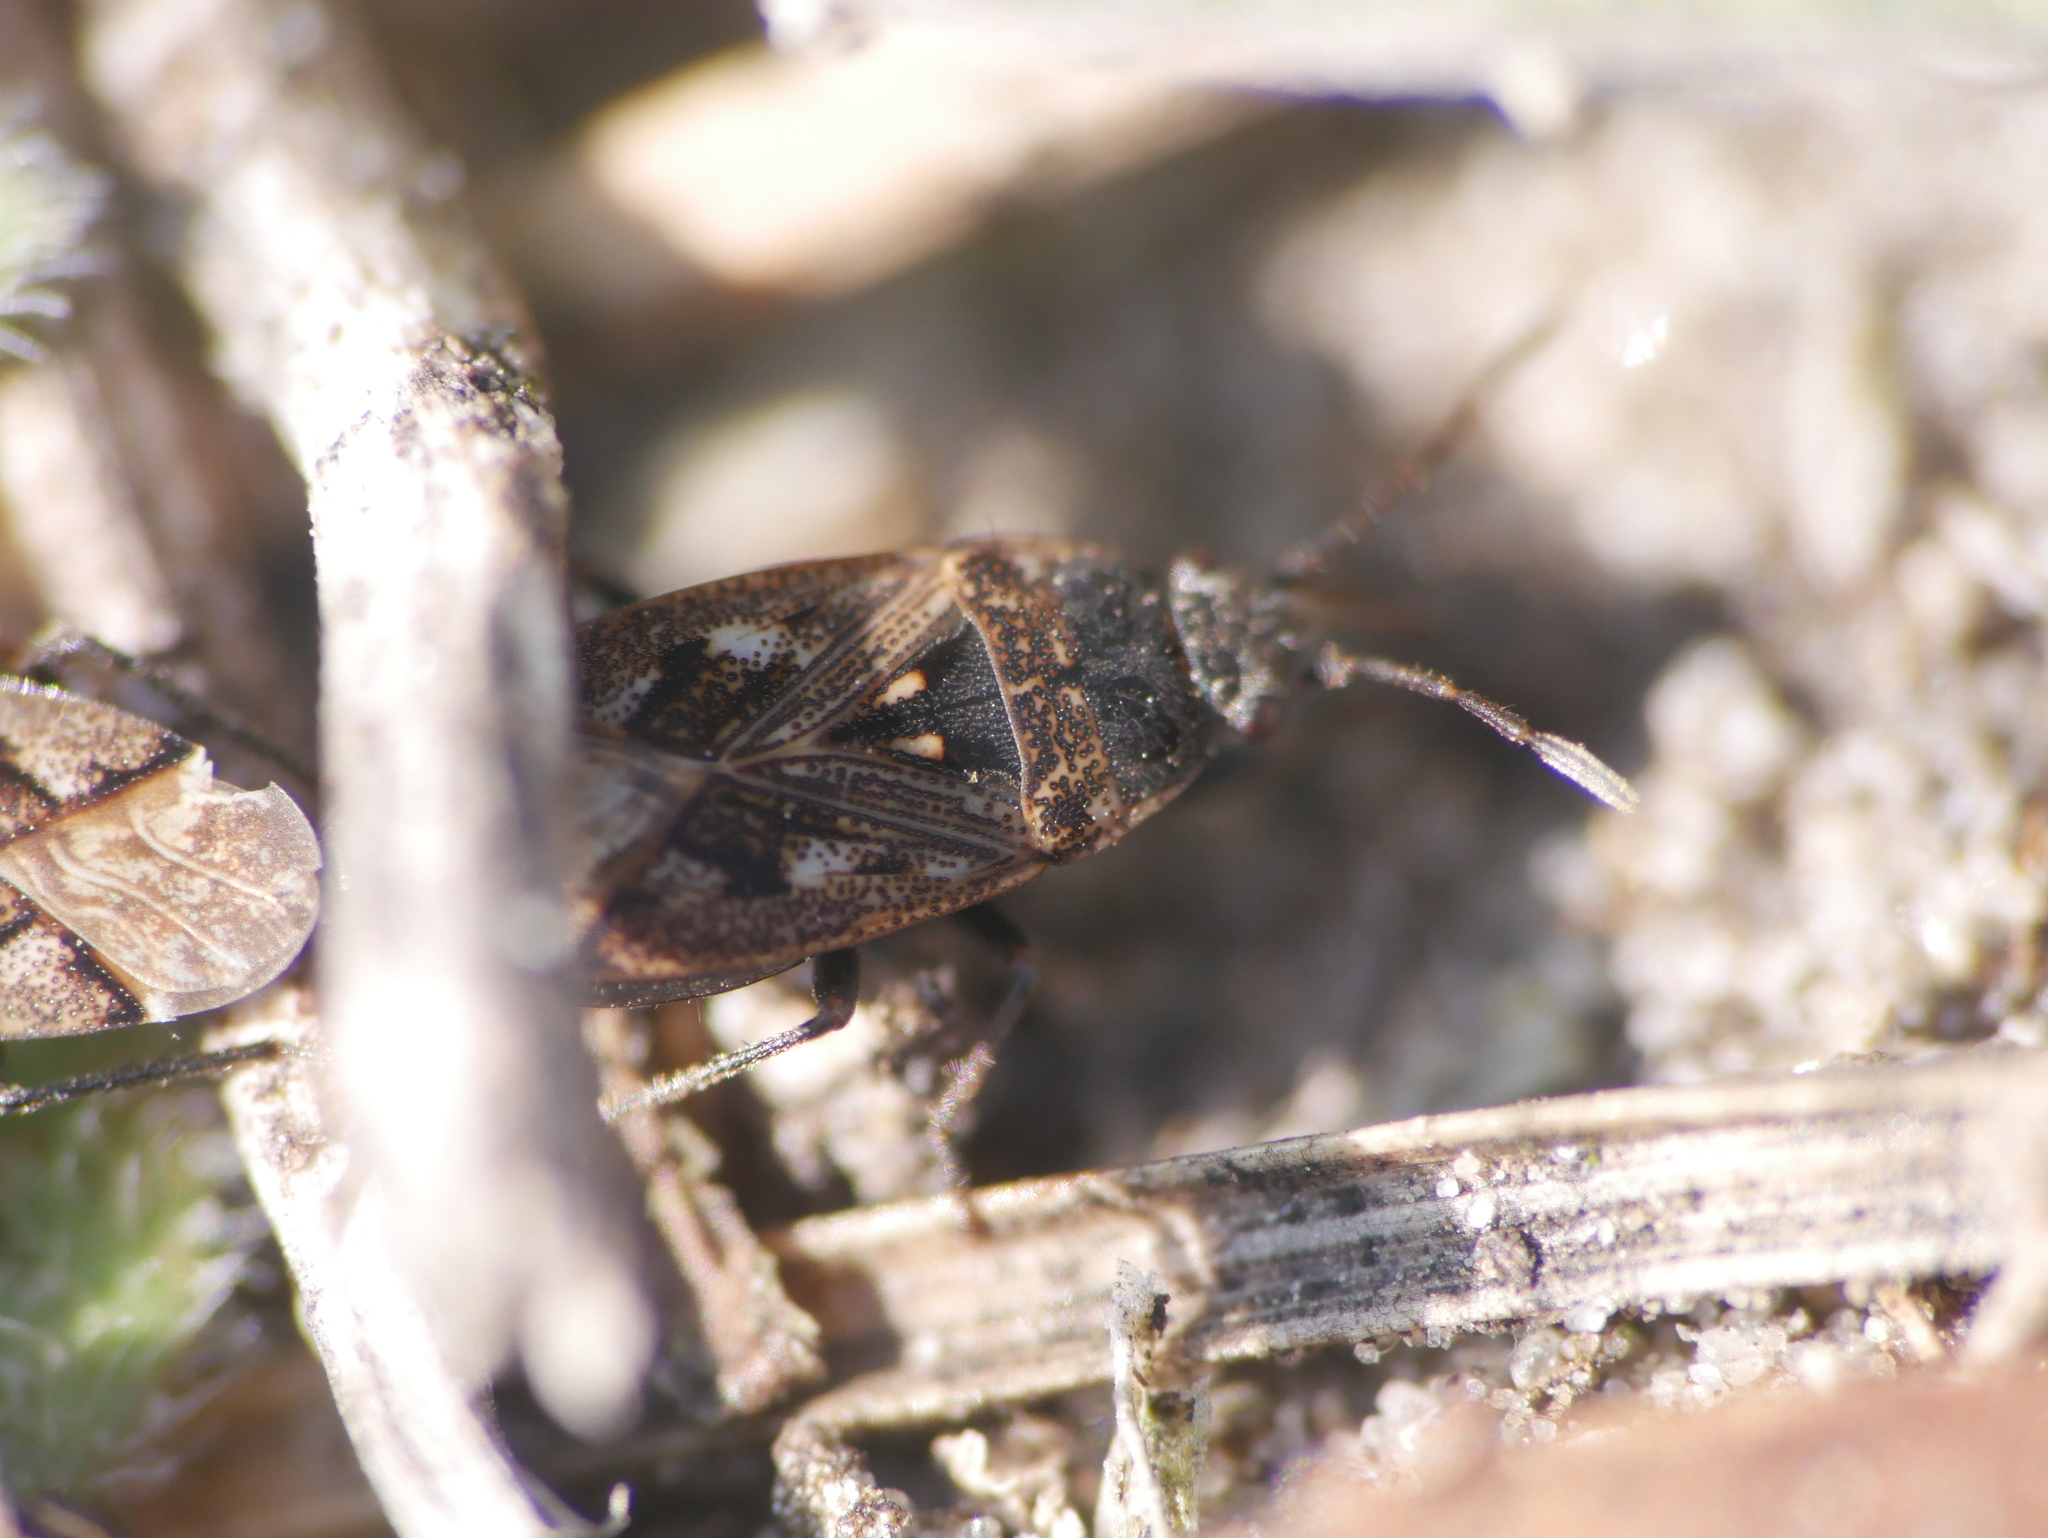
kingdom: Animalia
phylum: Arthropoda
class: Insecta
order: Hemiptera
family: Rhyparochromidae
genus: Sphragisticus
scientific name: Sphragisticus nebulosus
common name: Dirt-colored seed bug
